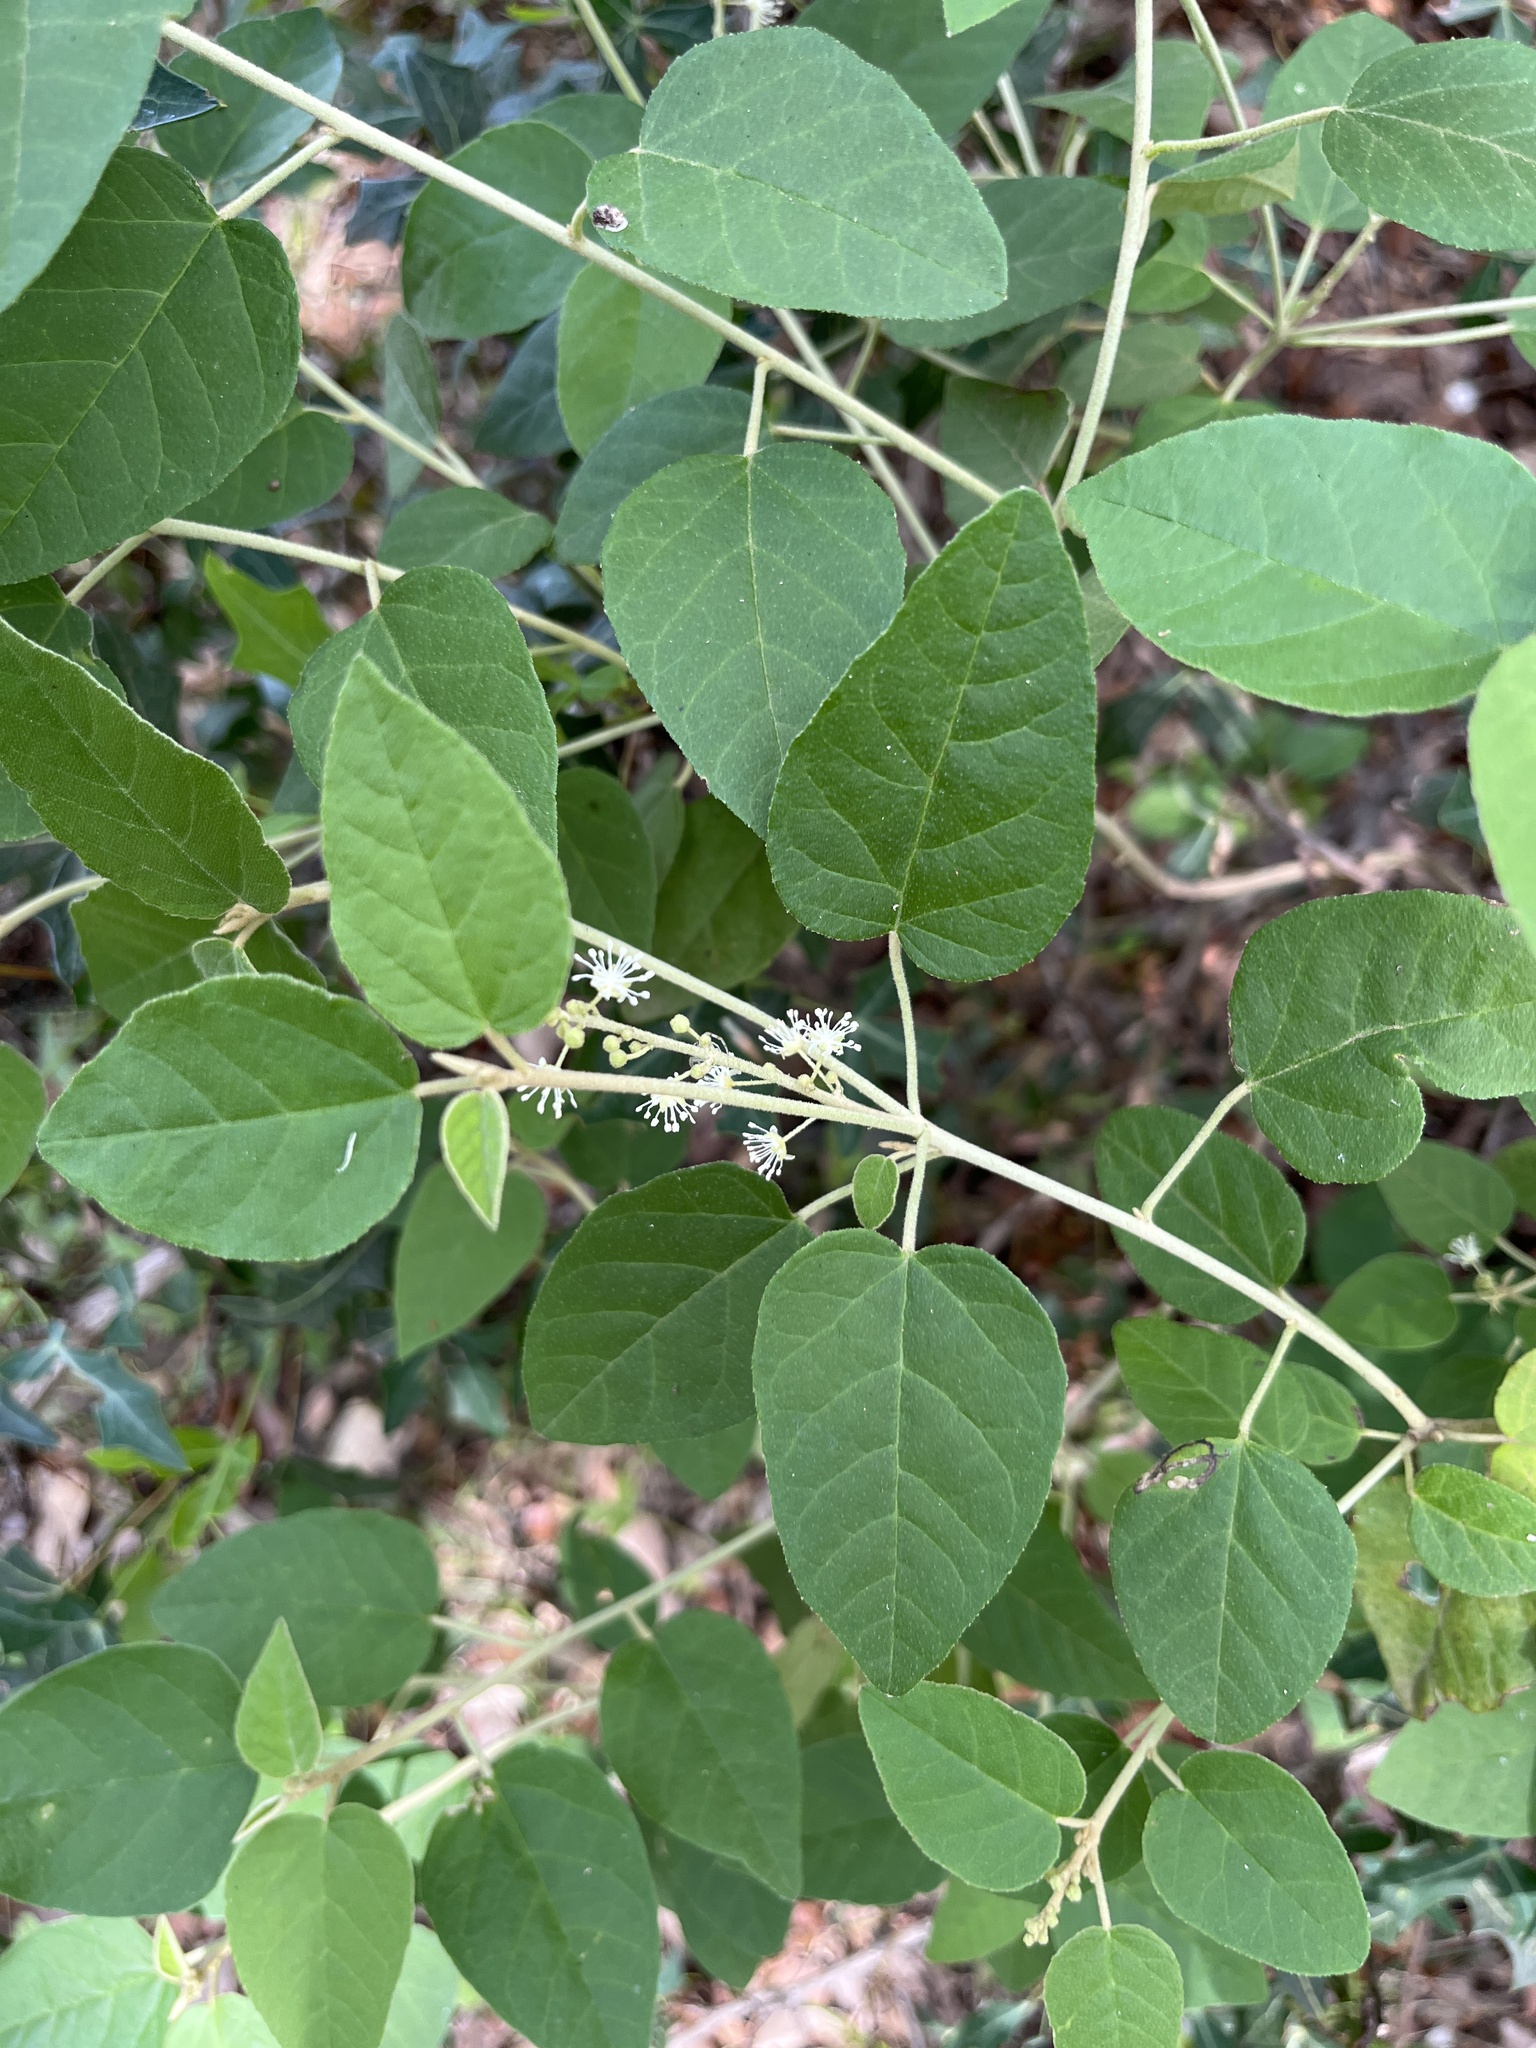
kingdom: Plantae
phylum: Tracheophyta
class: Magnoliopsida
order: Malpighiales
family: Euphorbiaceae
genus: Croton
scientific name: Croton fruticulosus
